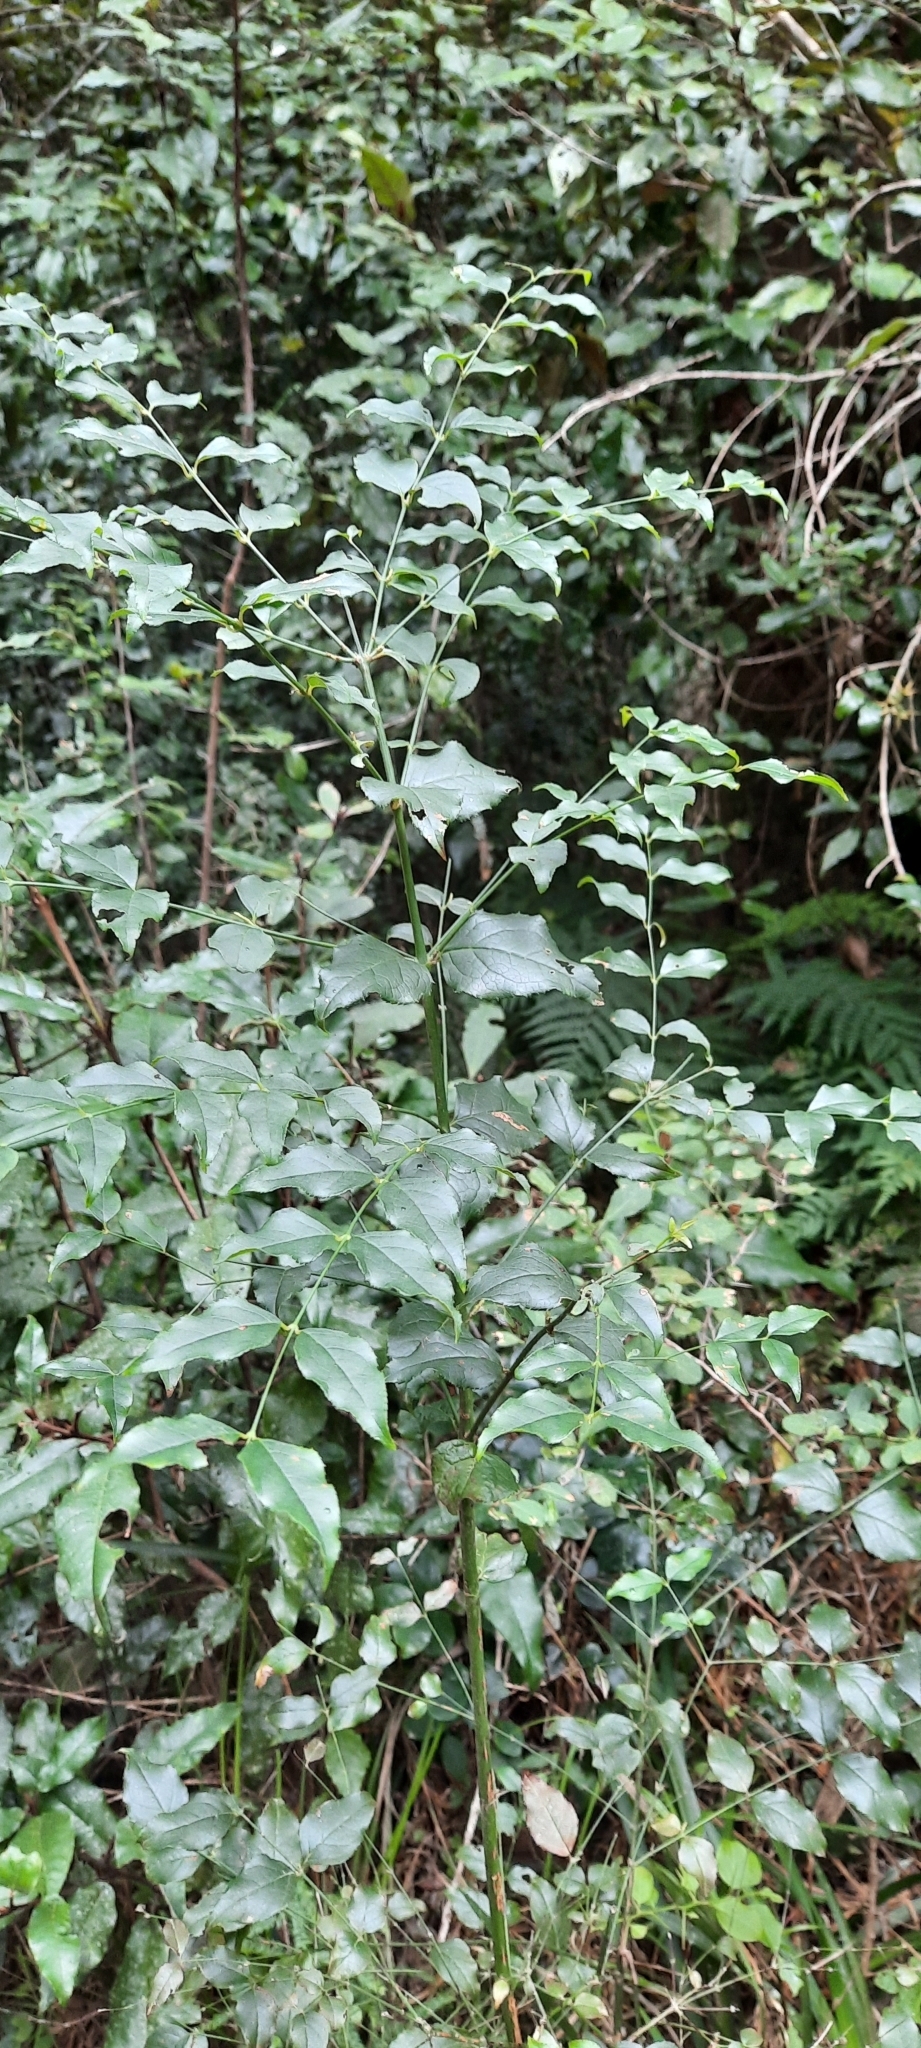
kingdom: Plantae
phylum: Tracheophyta
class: Magnoliopsida
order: Lamiales
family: Stilbaceae
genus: Halleria
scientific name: Halleria lucida
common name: Tree fuschia
